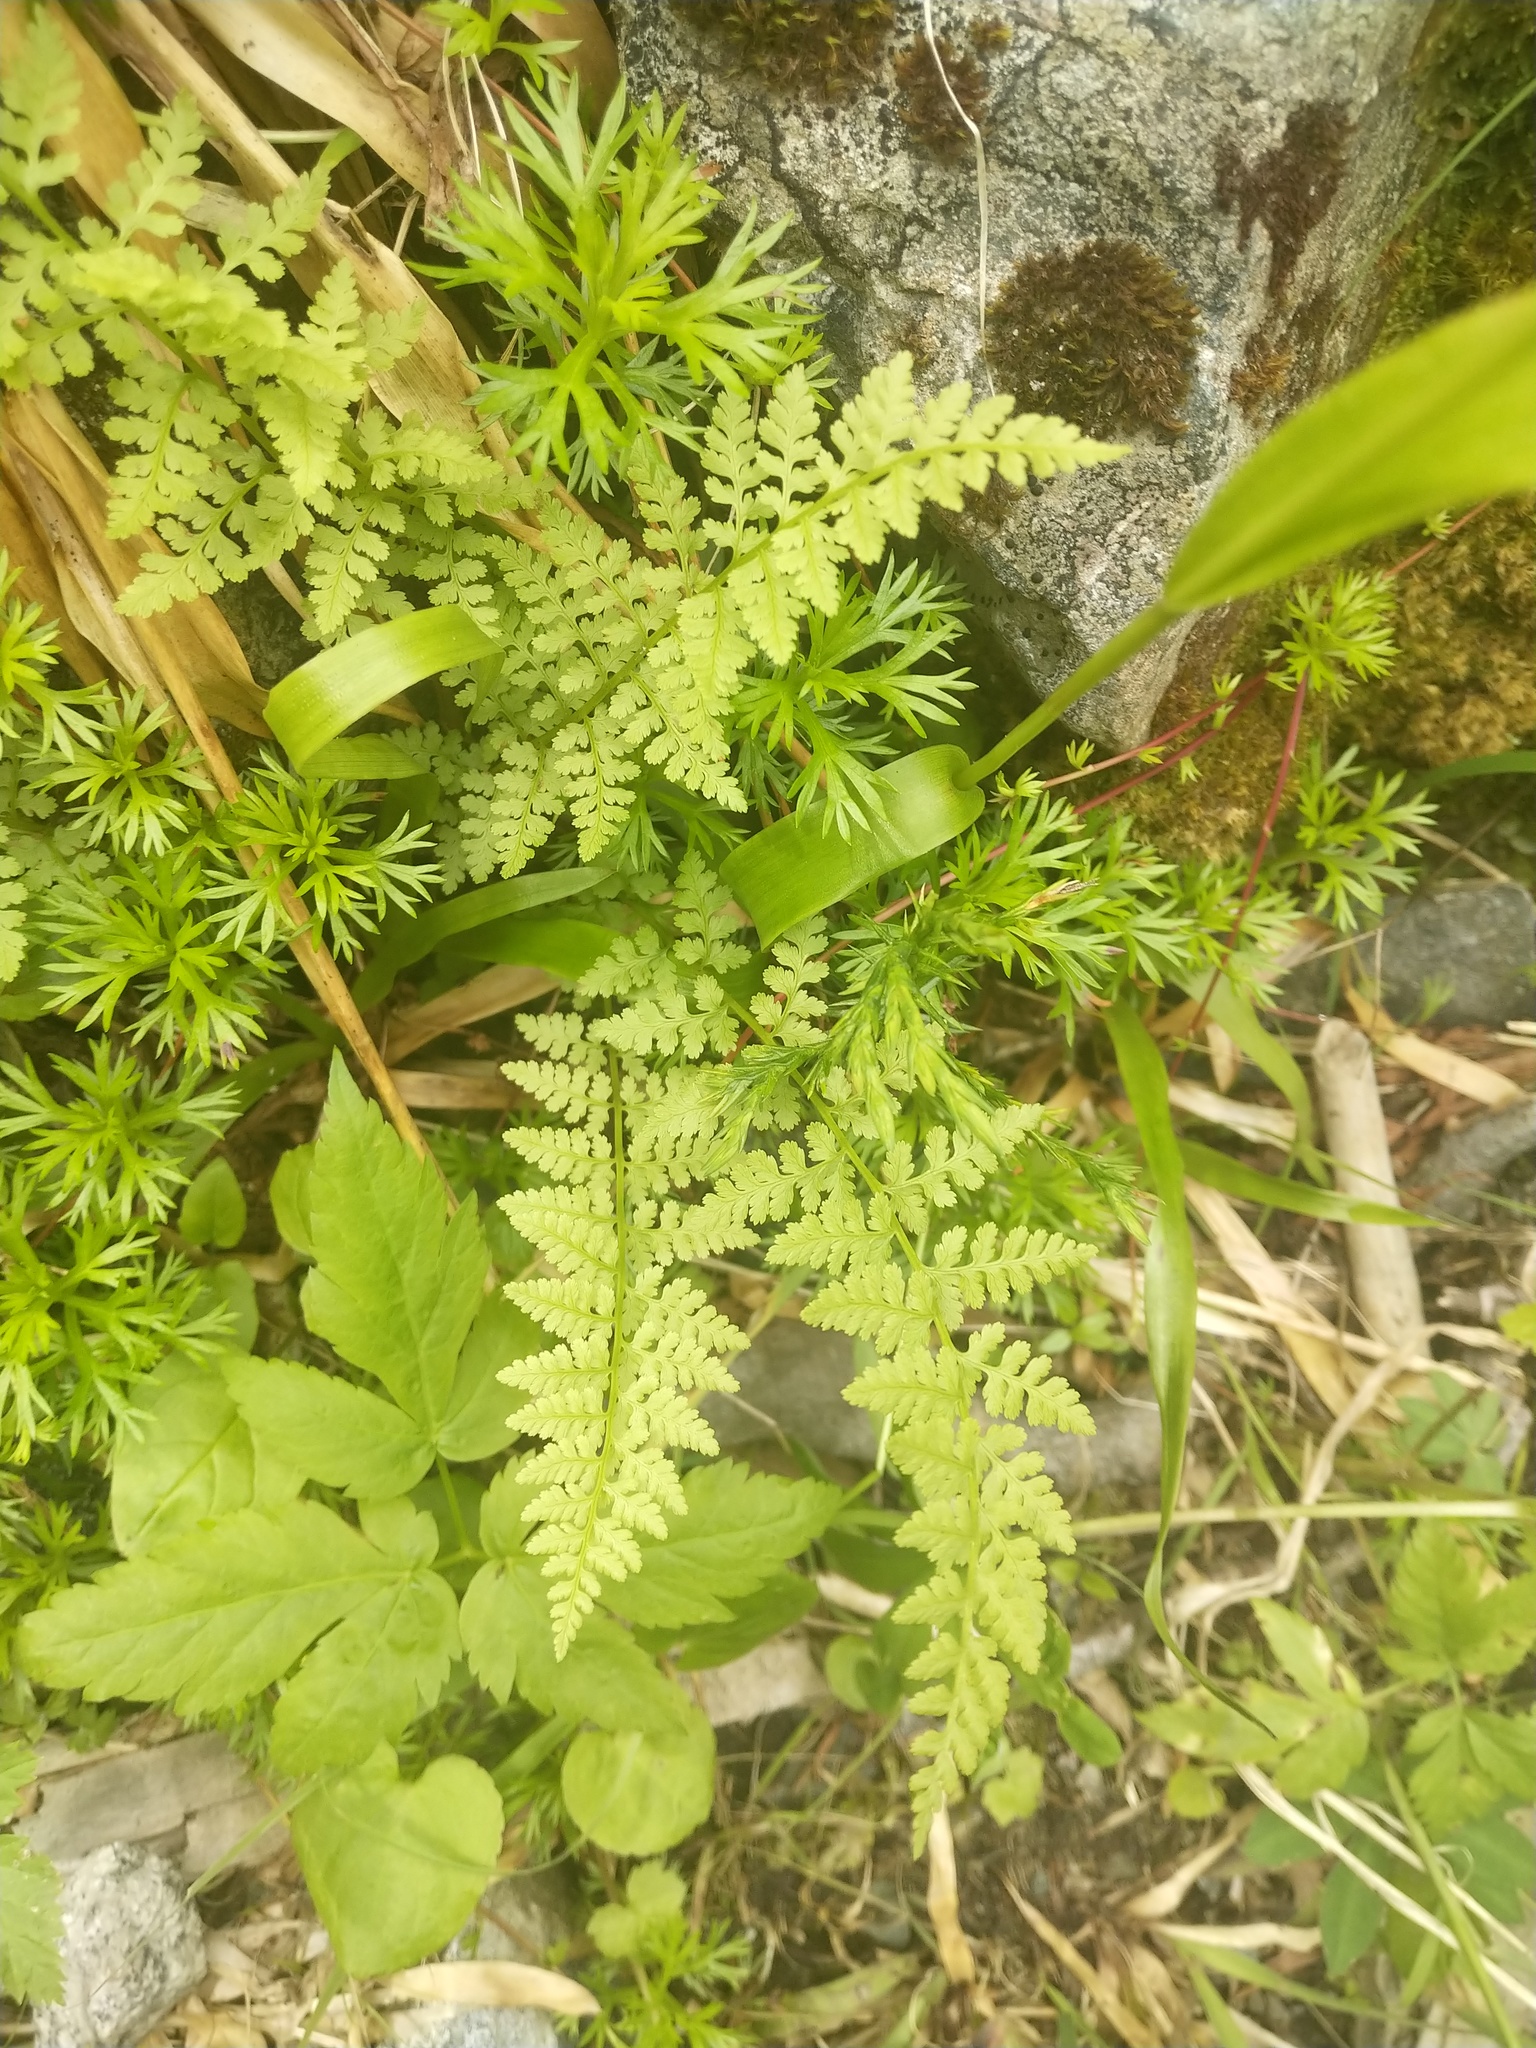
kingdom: Plantae
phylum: Tracheophyta
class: Polypodiopsida
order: Polypodiales
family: Athyriaceae
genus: Athyrium
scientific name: Athyrium filix-femina
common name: Lady fern
